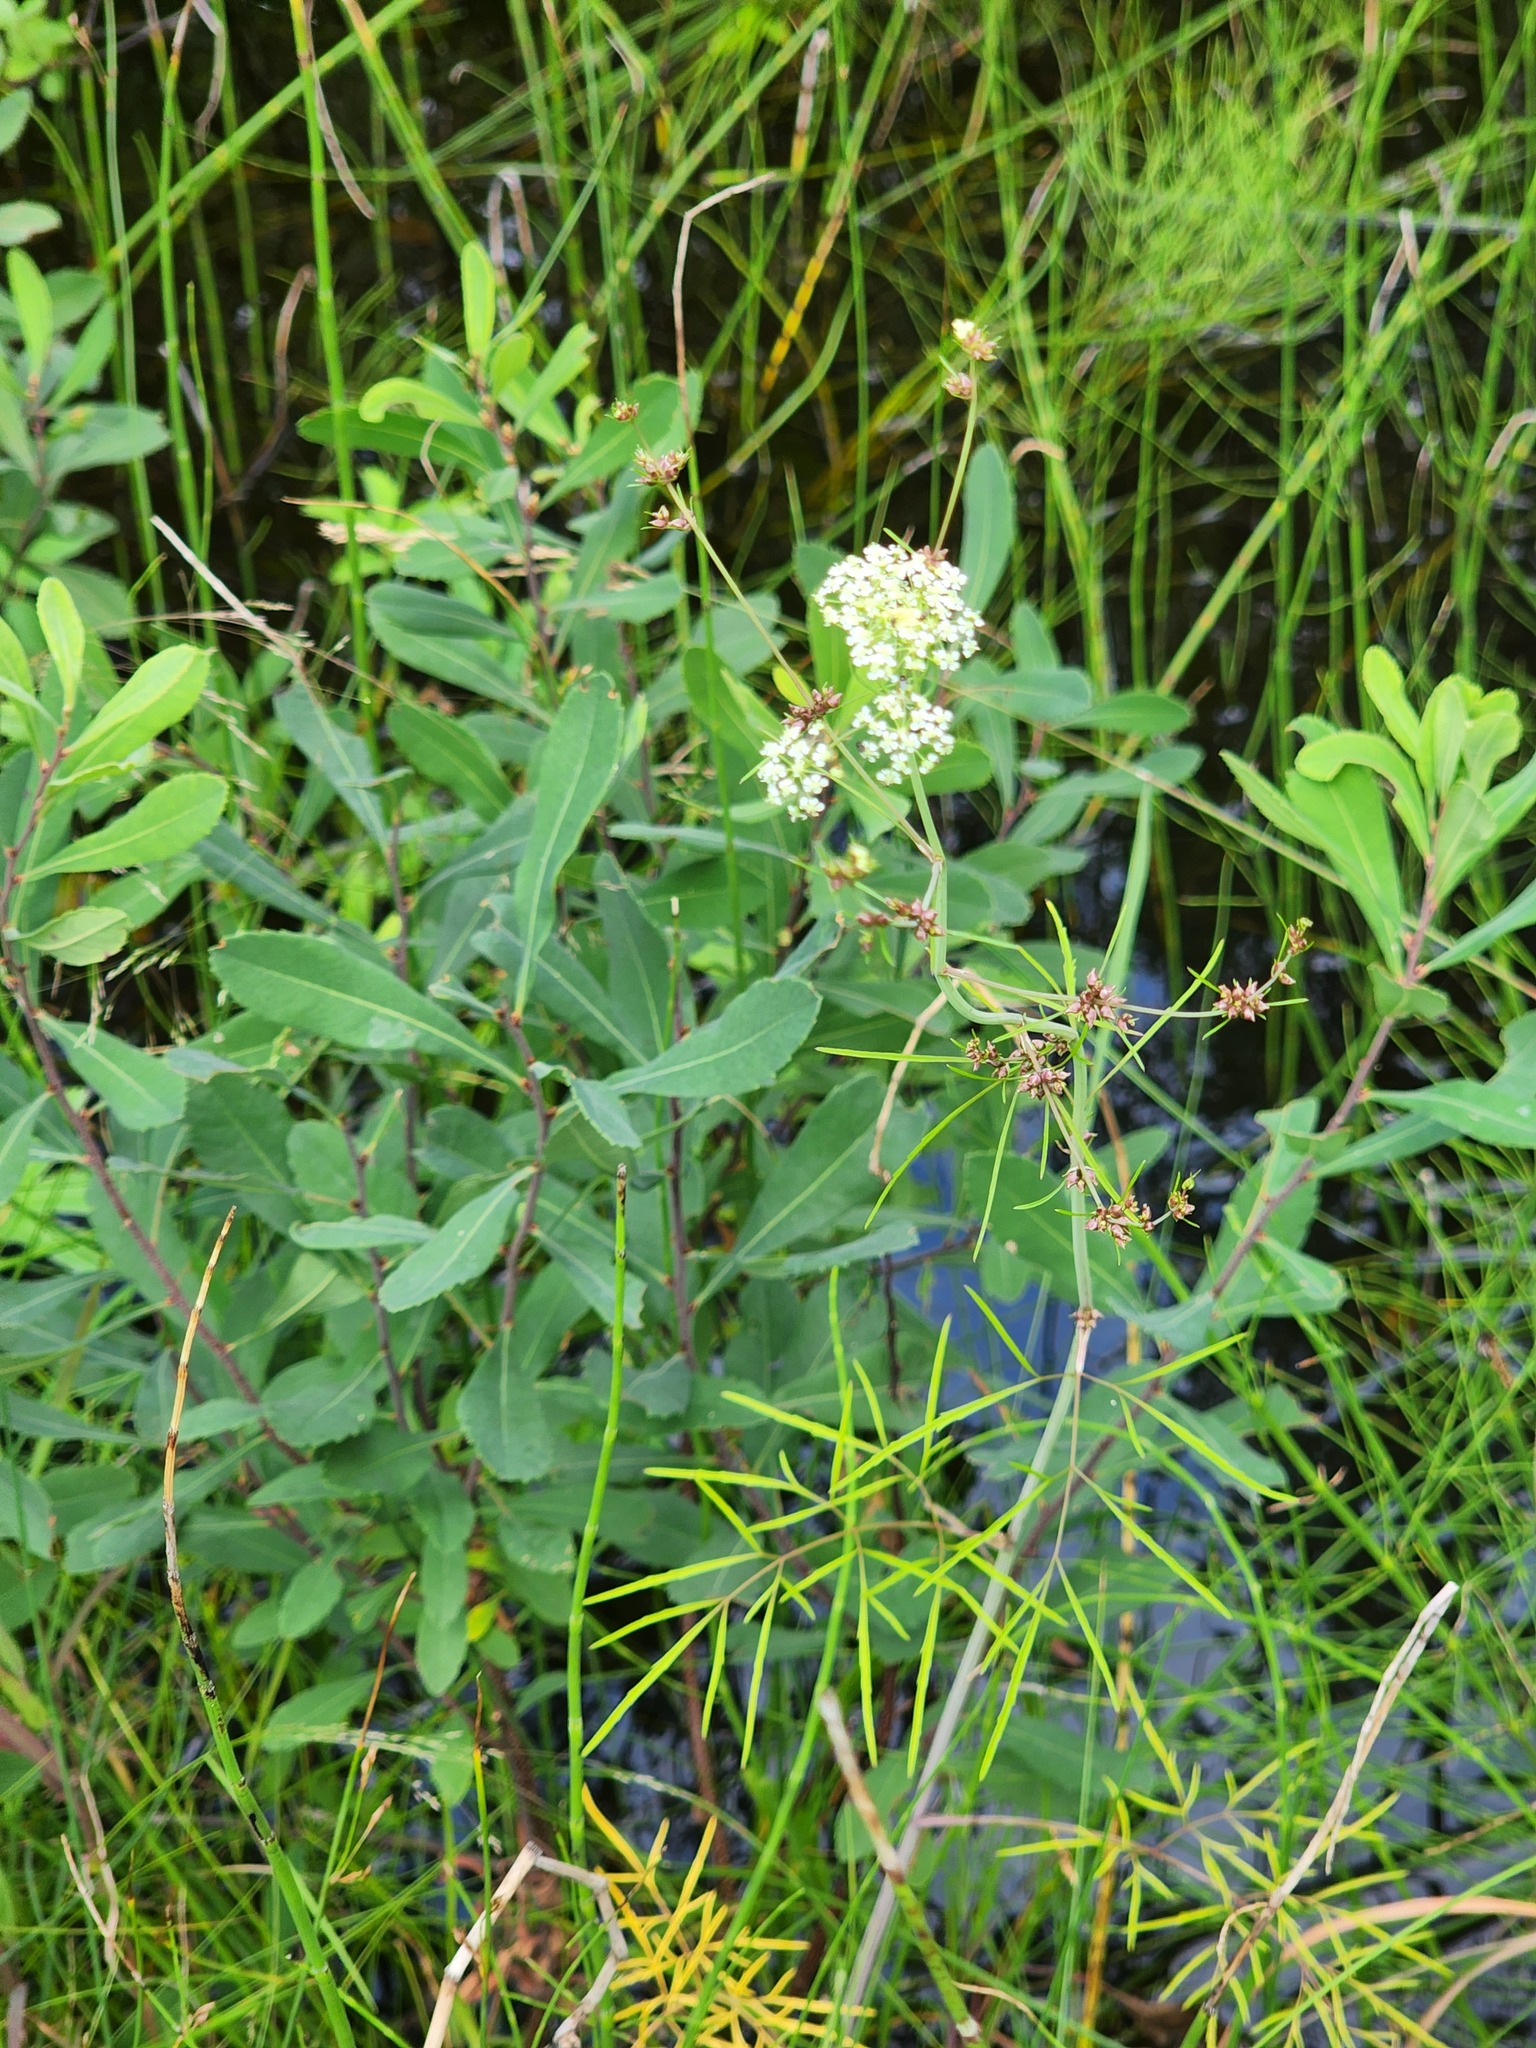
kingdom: Plantae
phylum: Tracheophyta
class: Magnoliopsida
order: Apiales
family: Apiaceae
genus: Cicuta
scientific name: Cicuta bulbifera
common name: Bulb-bearing water-hemlock
